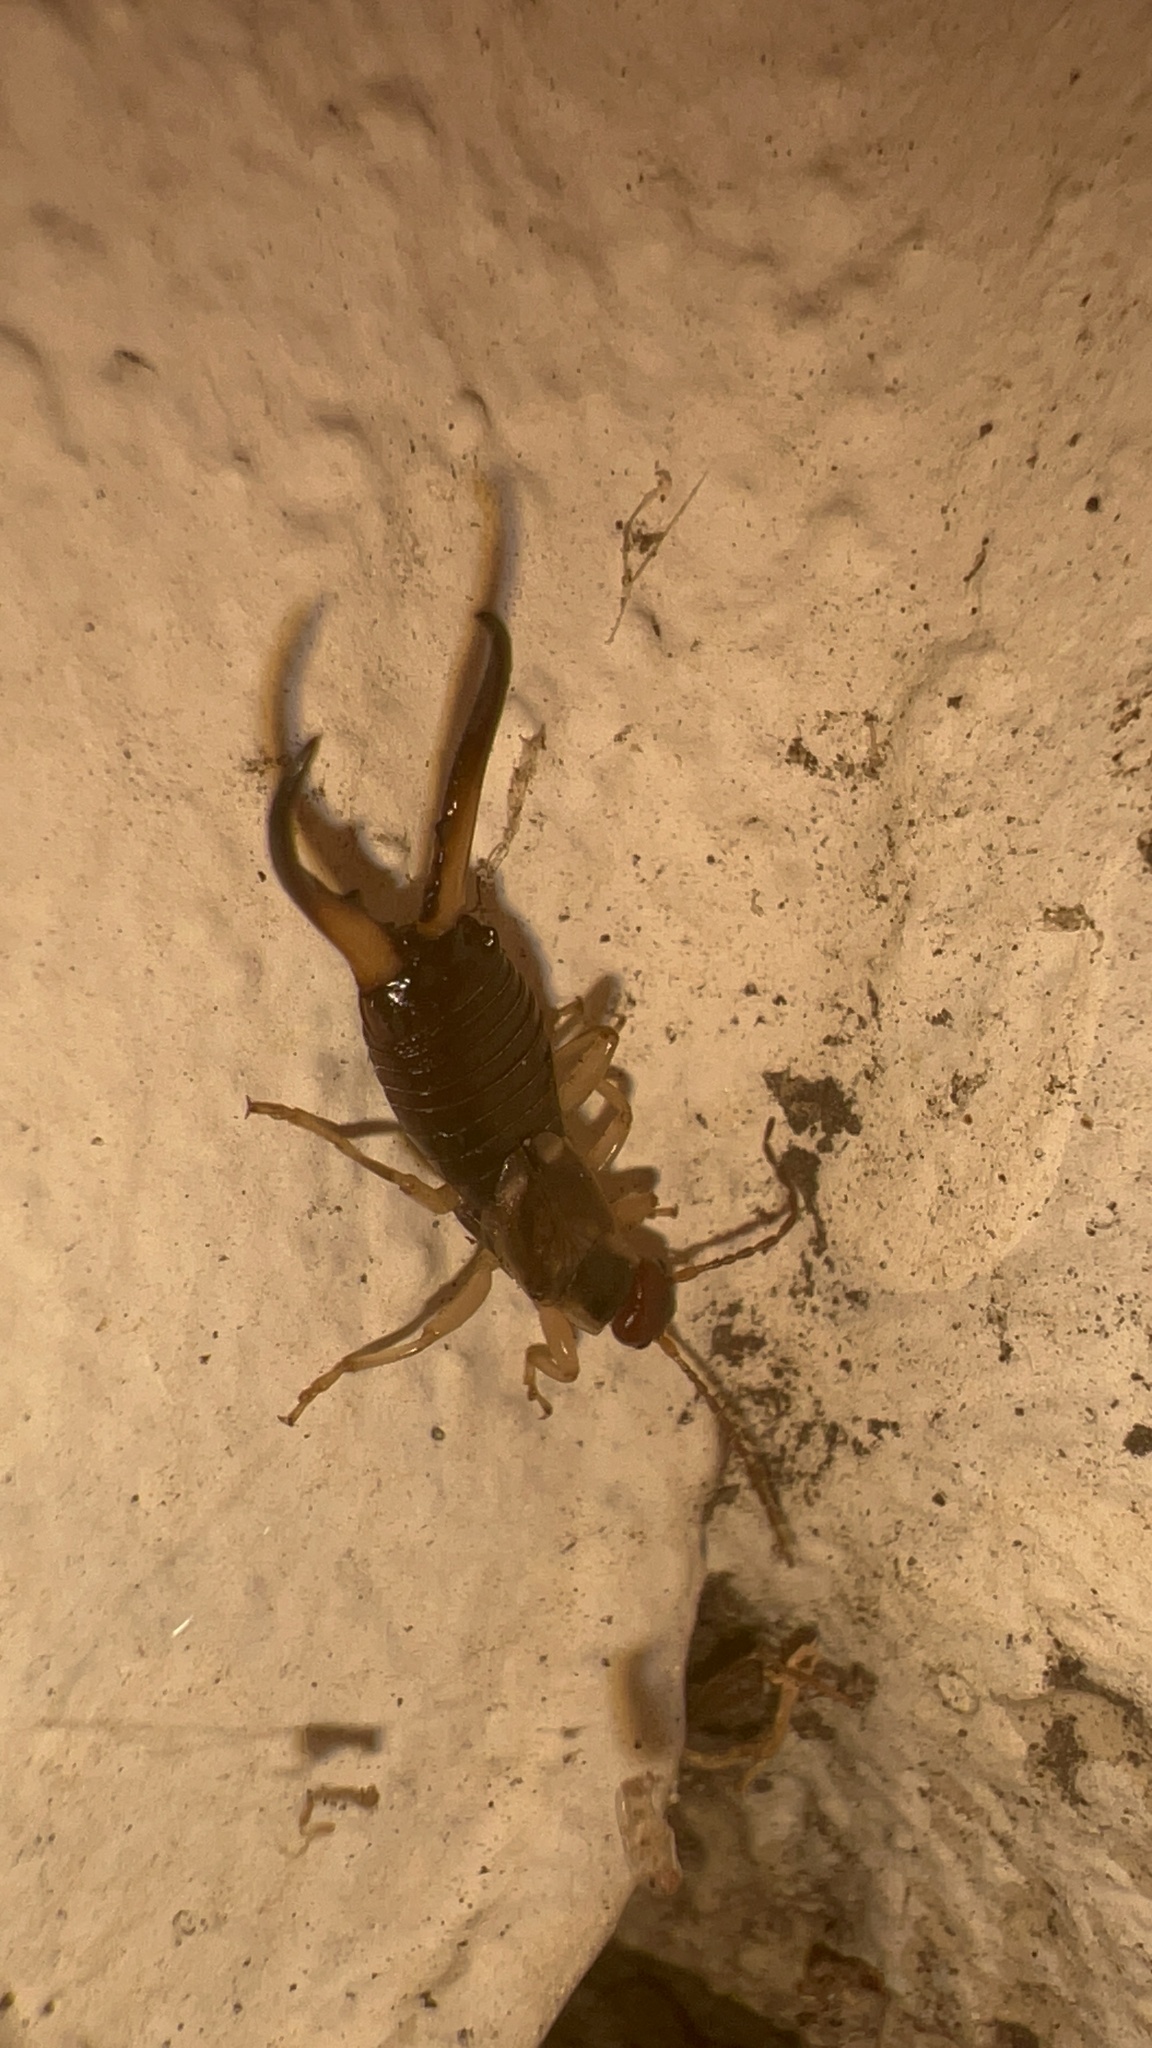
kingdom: Animalia
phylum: Arthropoda
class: Insecta
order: Dermaptera
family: Forficulidae
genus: Forficula
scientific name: Forficula dentata
